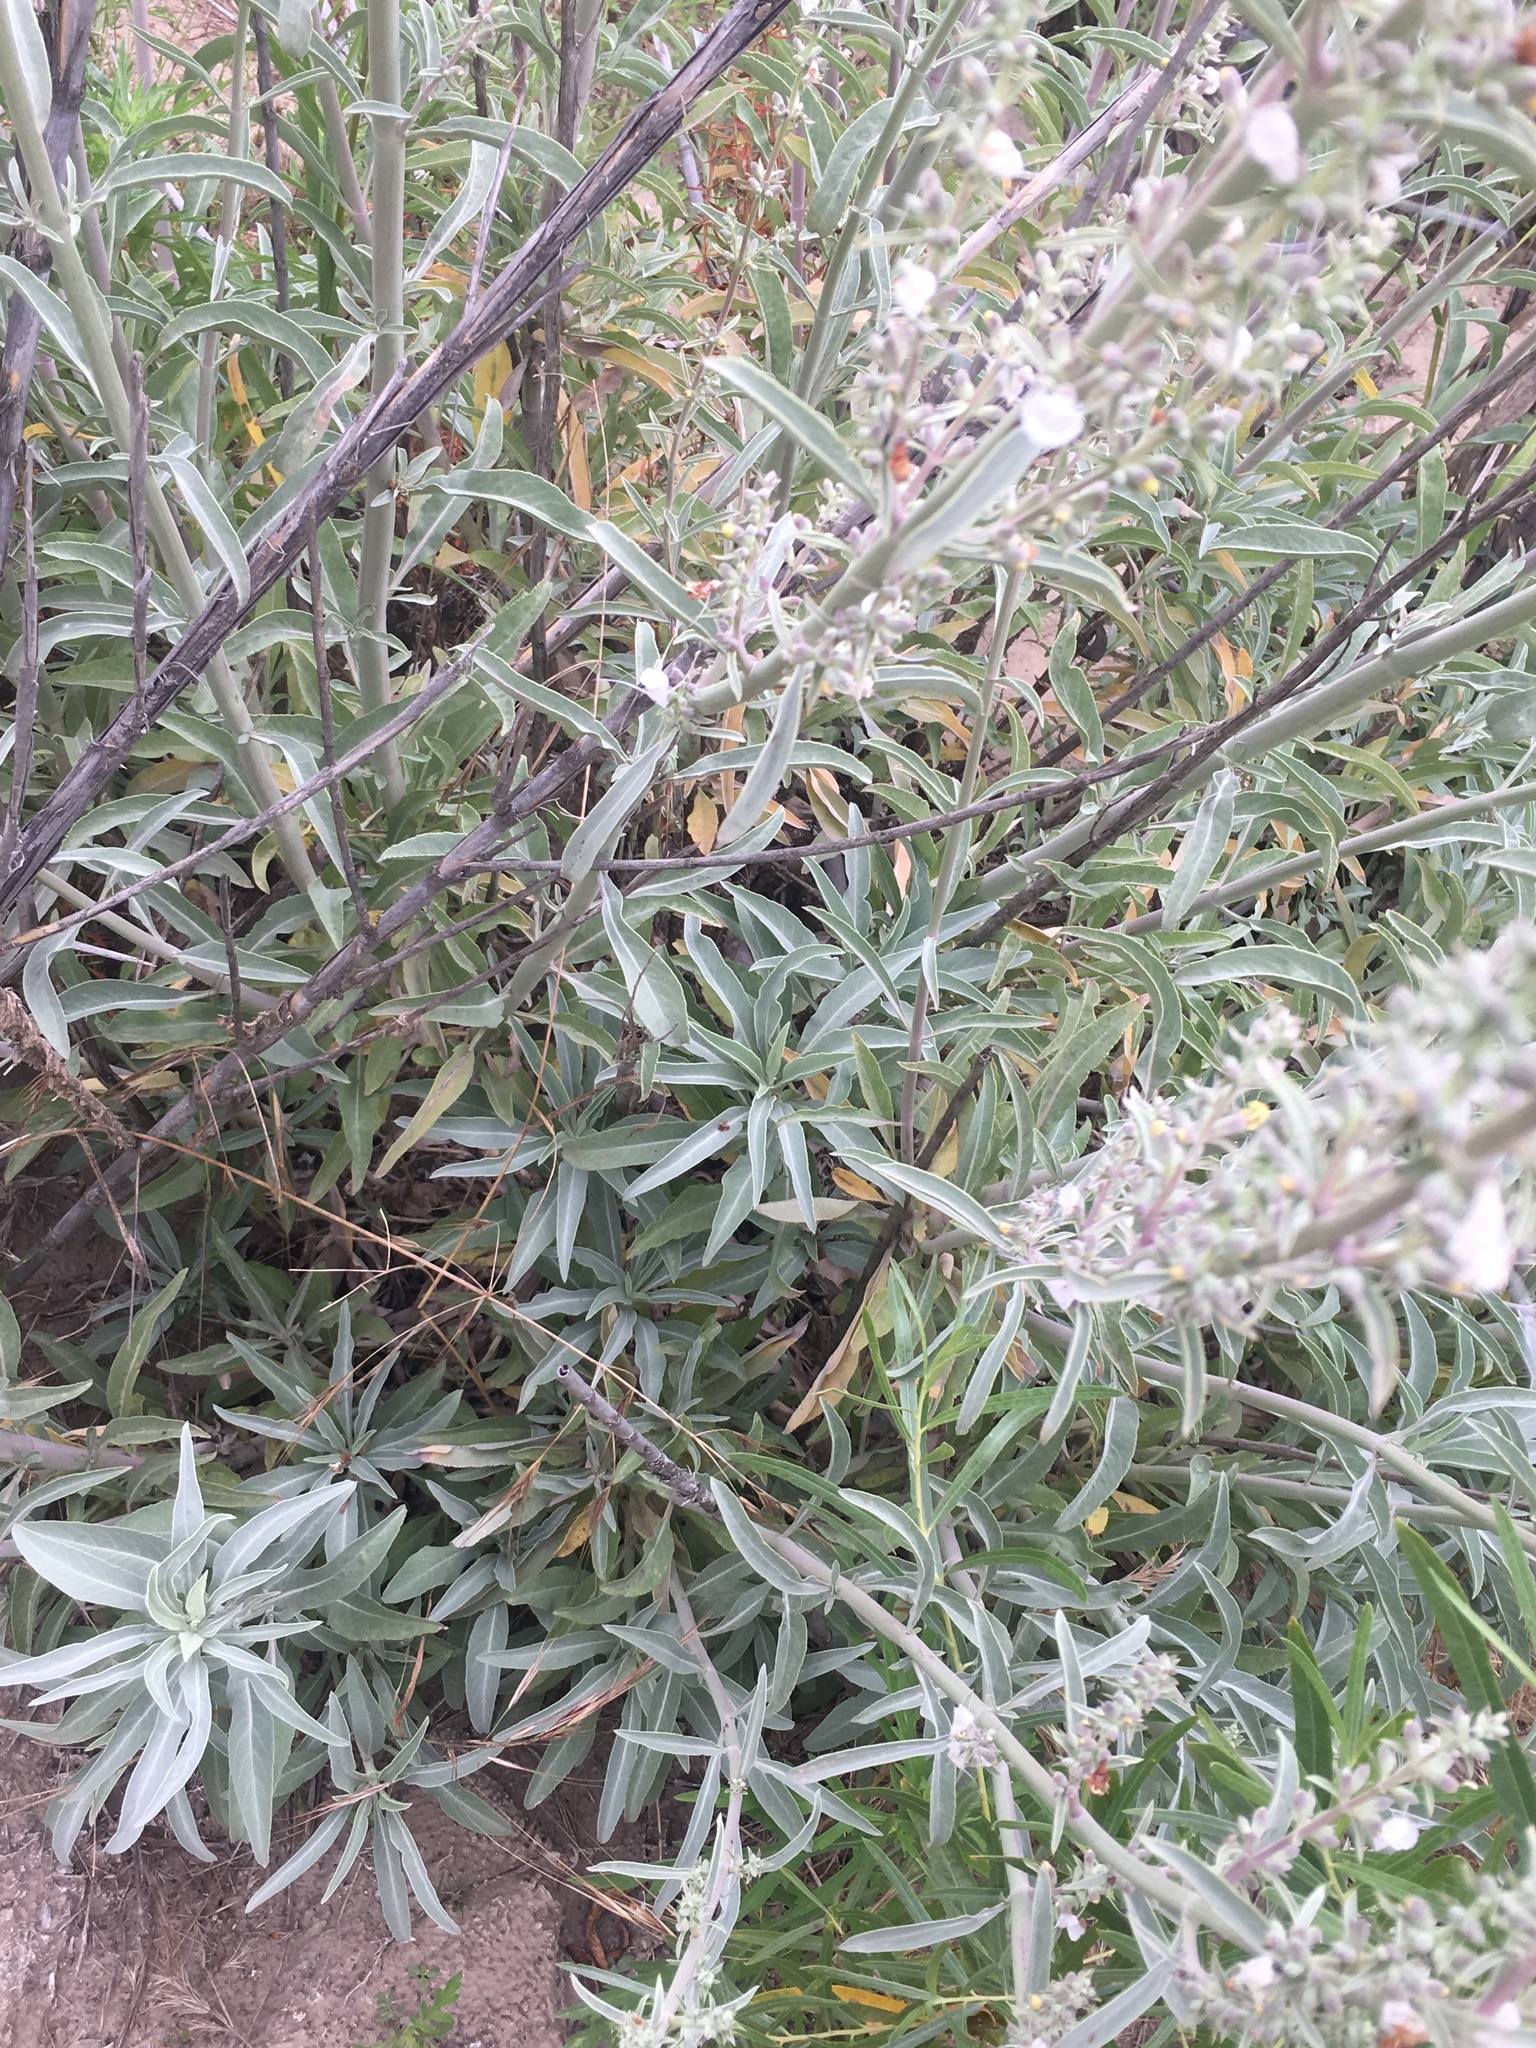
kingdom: Plantae
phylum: Tracheophyta
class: Magnoliopsida
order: Lamiales
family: Lamiaceae
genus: Salvia
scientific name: Salvia apiana
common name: White sage
